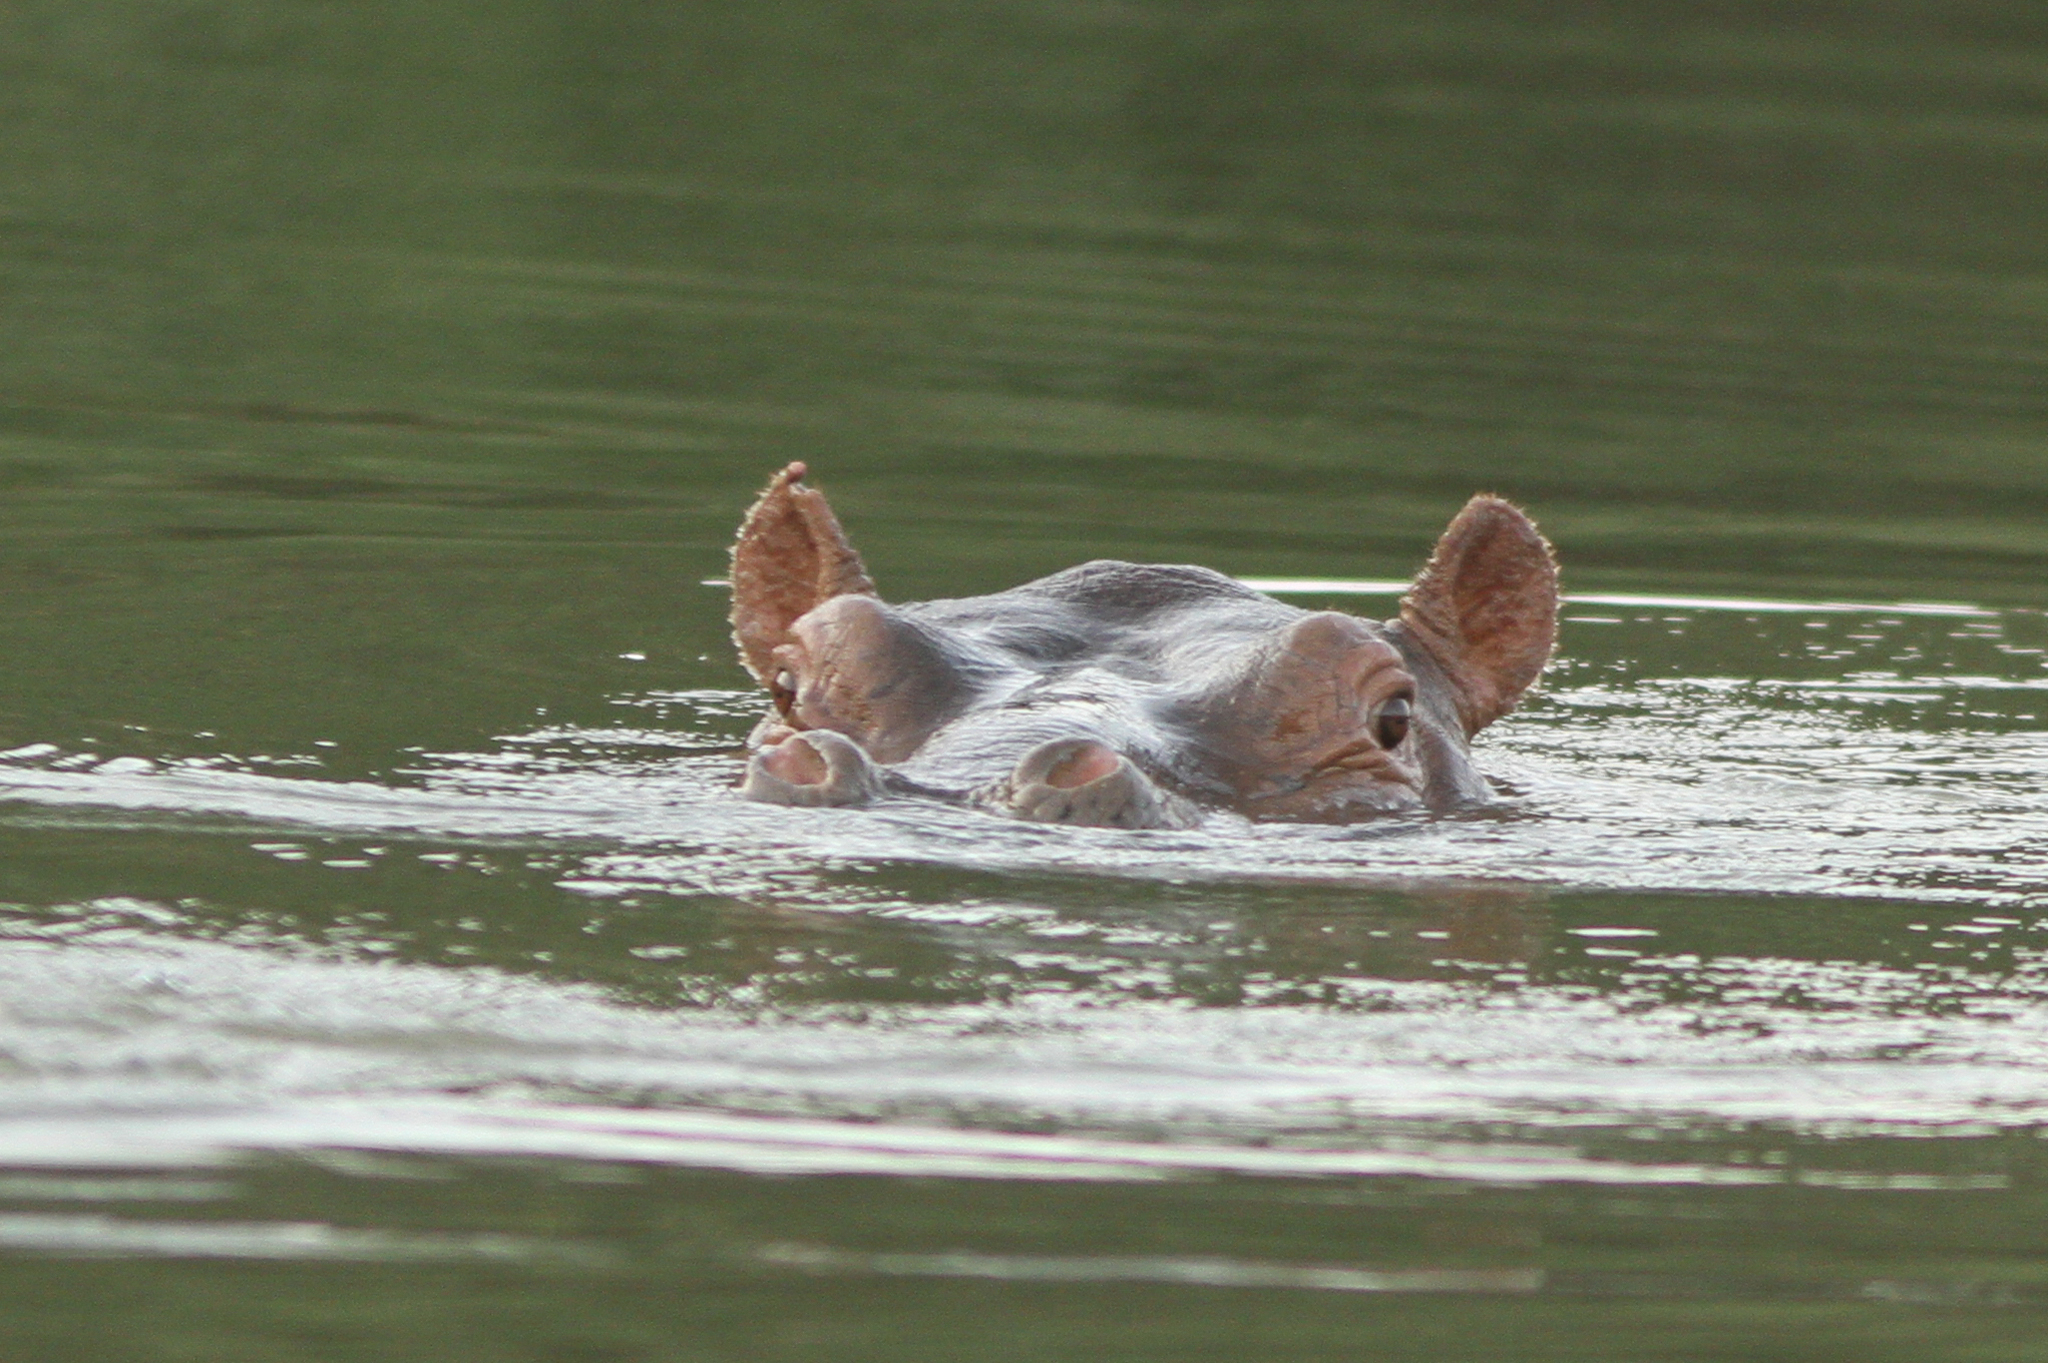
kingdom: Animalia
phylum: Chordata
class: Mammalia
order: Artiodactyla
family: Hippopotamidae
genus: Hippopotamus
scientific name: Hippopotamus amphibius
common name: Common hippopotamus
